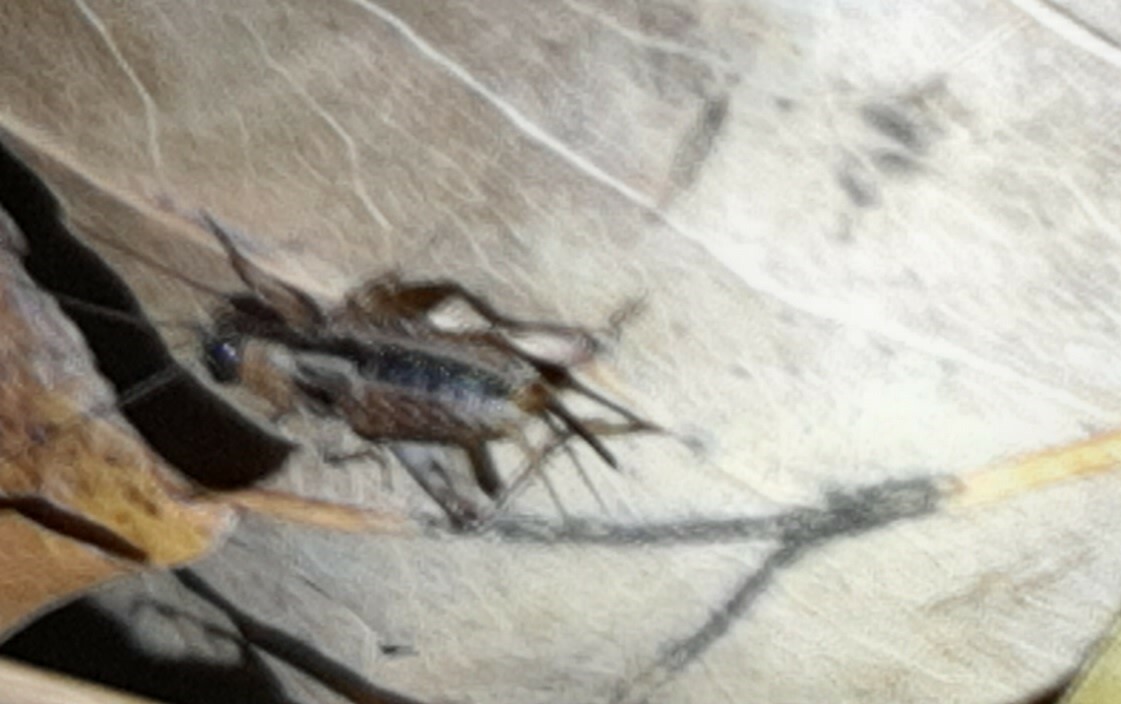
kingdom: Animalia
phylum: Arthropoda
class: Insecta
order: Orthoptera
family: Trigonidiidae
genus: Nemobius
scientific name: Nemobius sylvestris
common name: Wood-cricket
